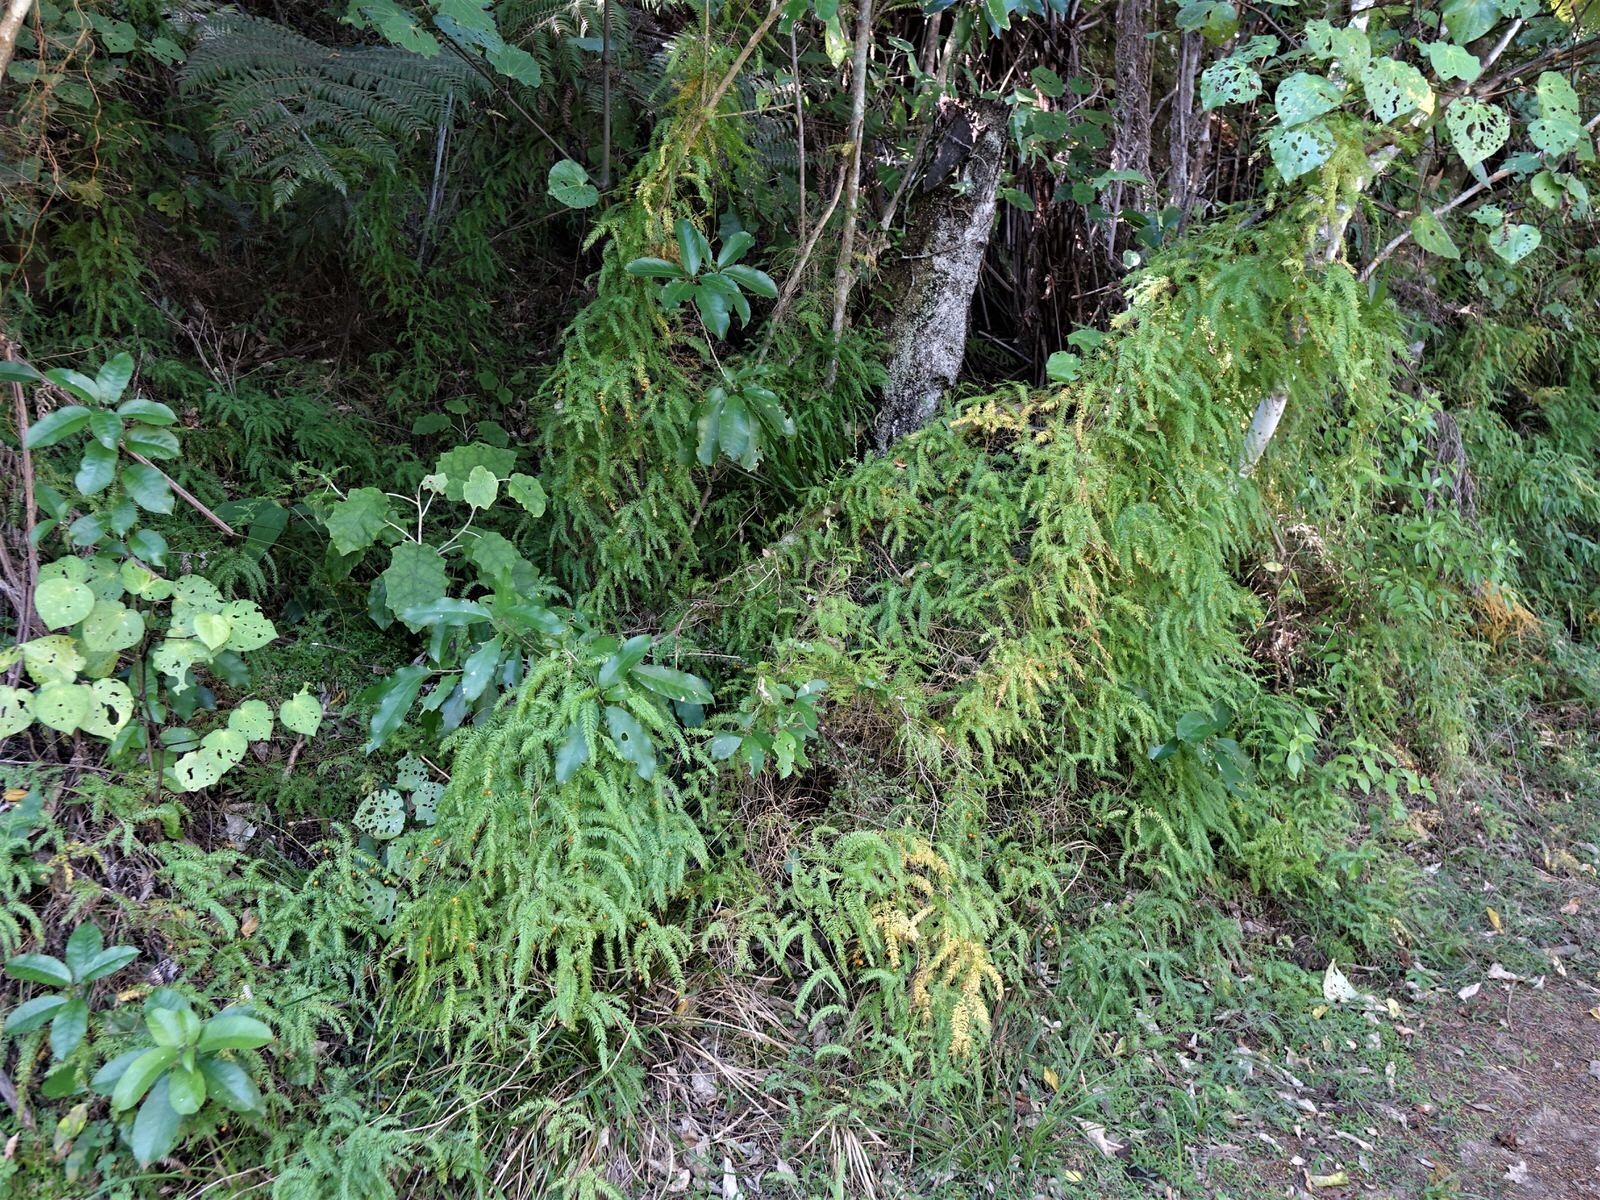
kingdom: Plantae
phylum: Tracheophyta
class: Liliopsida
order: Asparagales
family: Asparagaceae
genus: Asparagus
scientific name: Asparagus scandens
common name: Asparagus-fern
